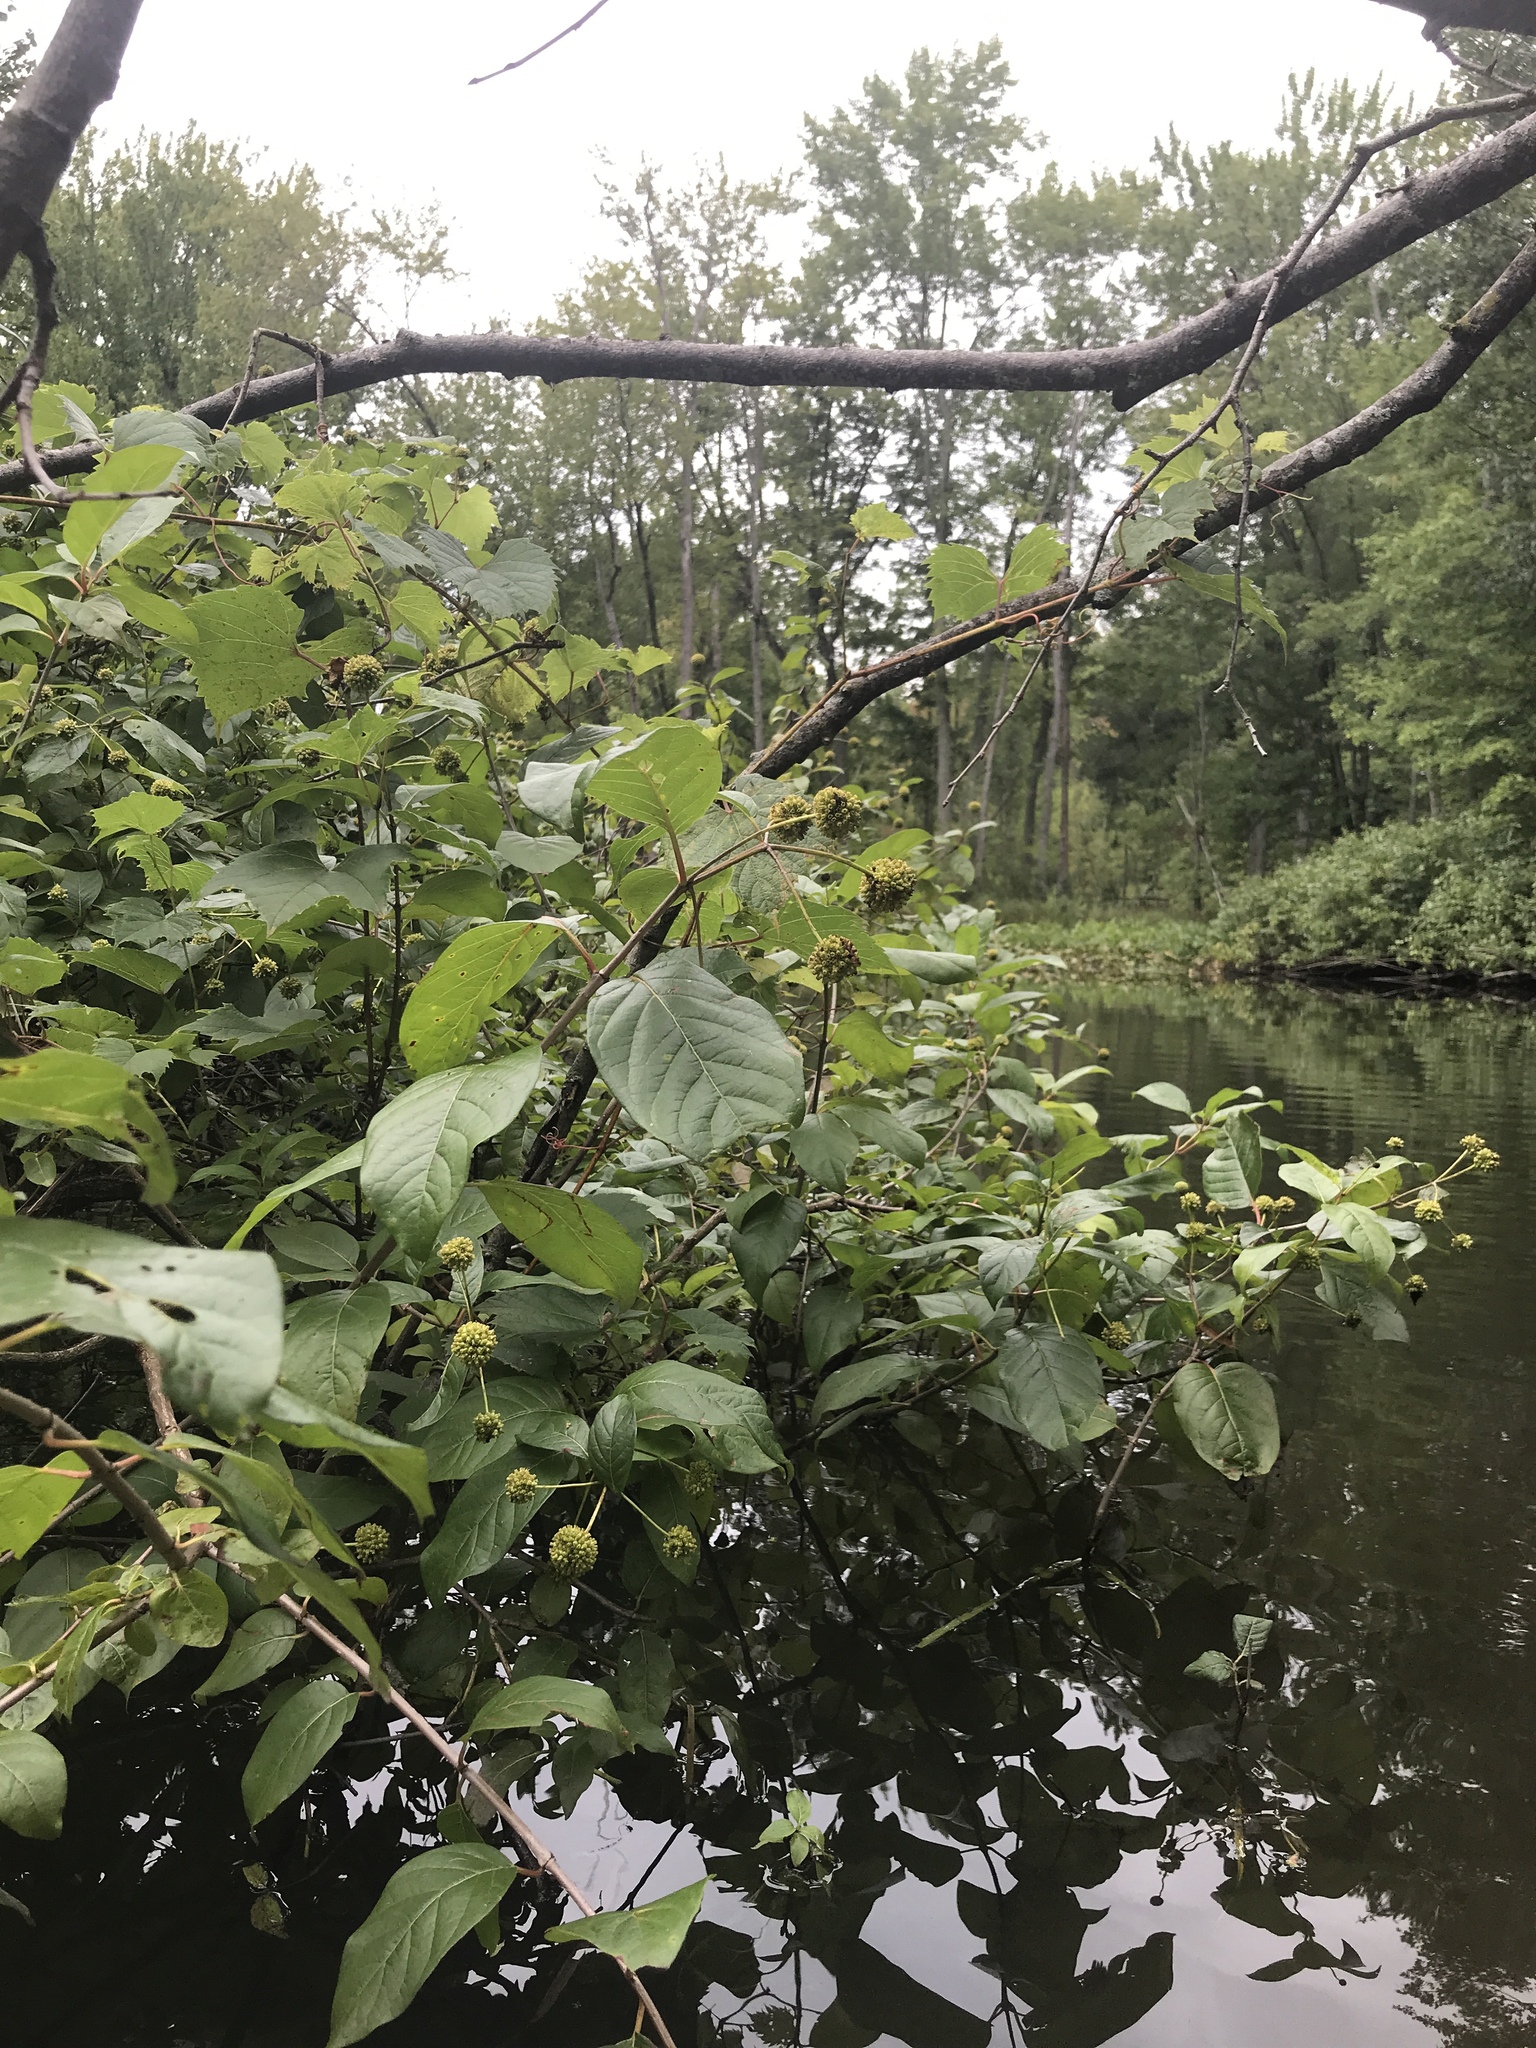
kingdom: Plantae
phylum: Tracheophyta
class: Magnoliopsida
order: Gentianales
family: Rubiaceae
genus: Cephalanthus
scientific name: Cephalanthus occidentalis
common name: Button-willow
